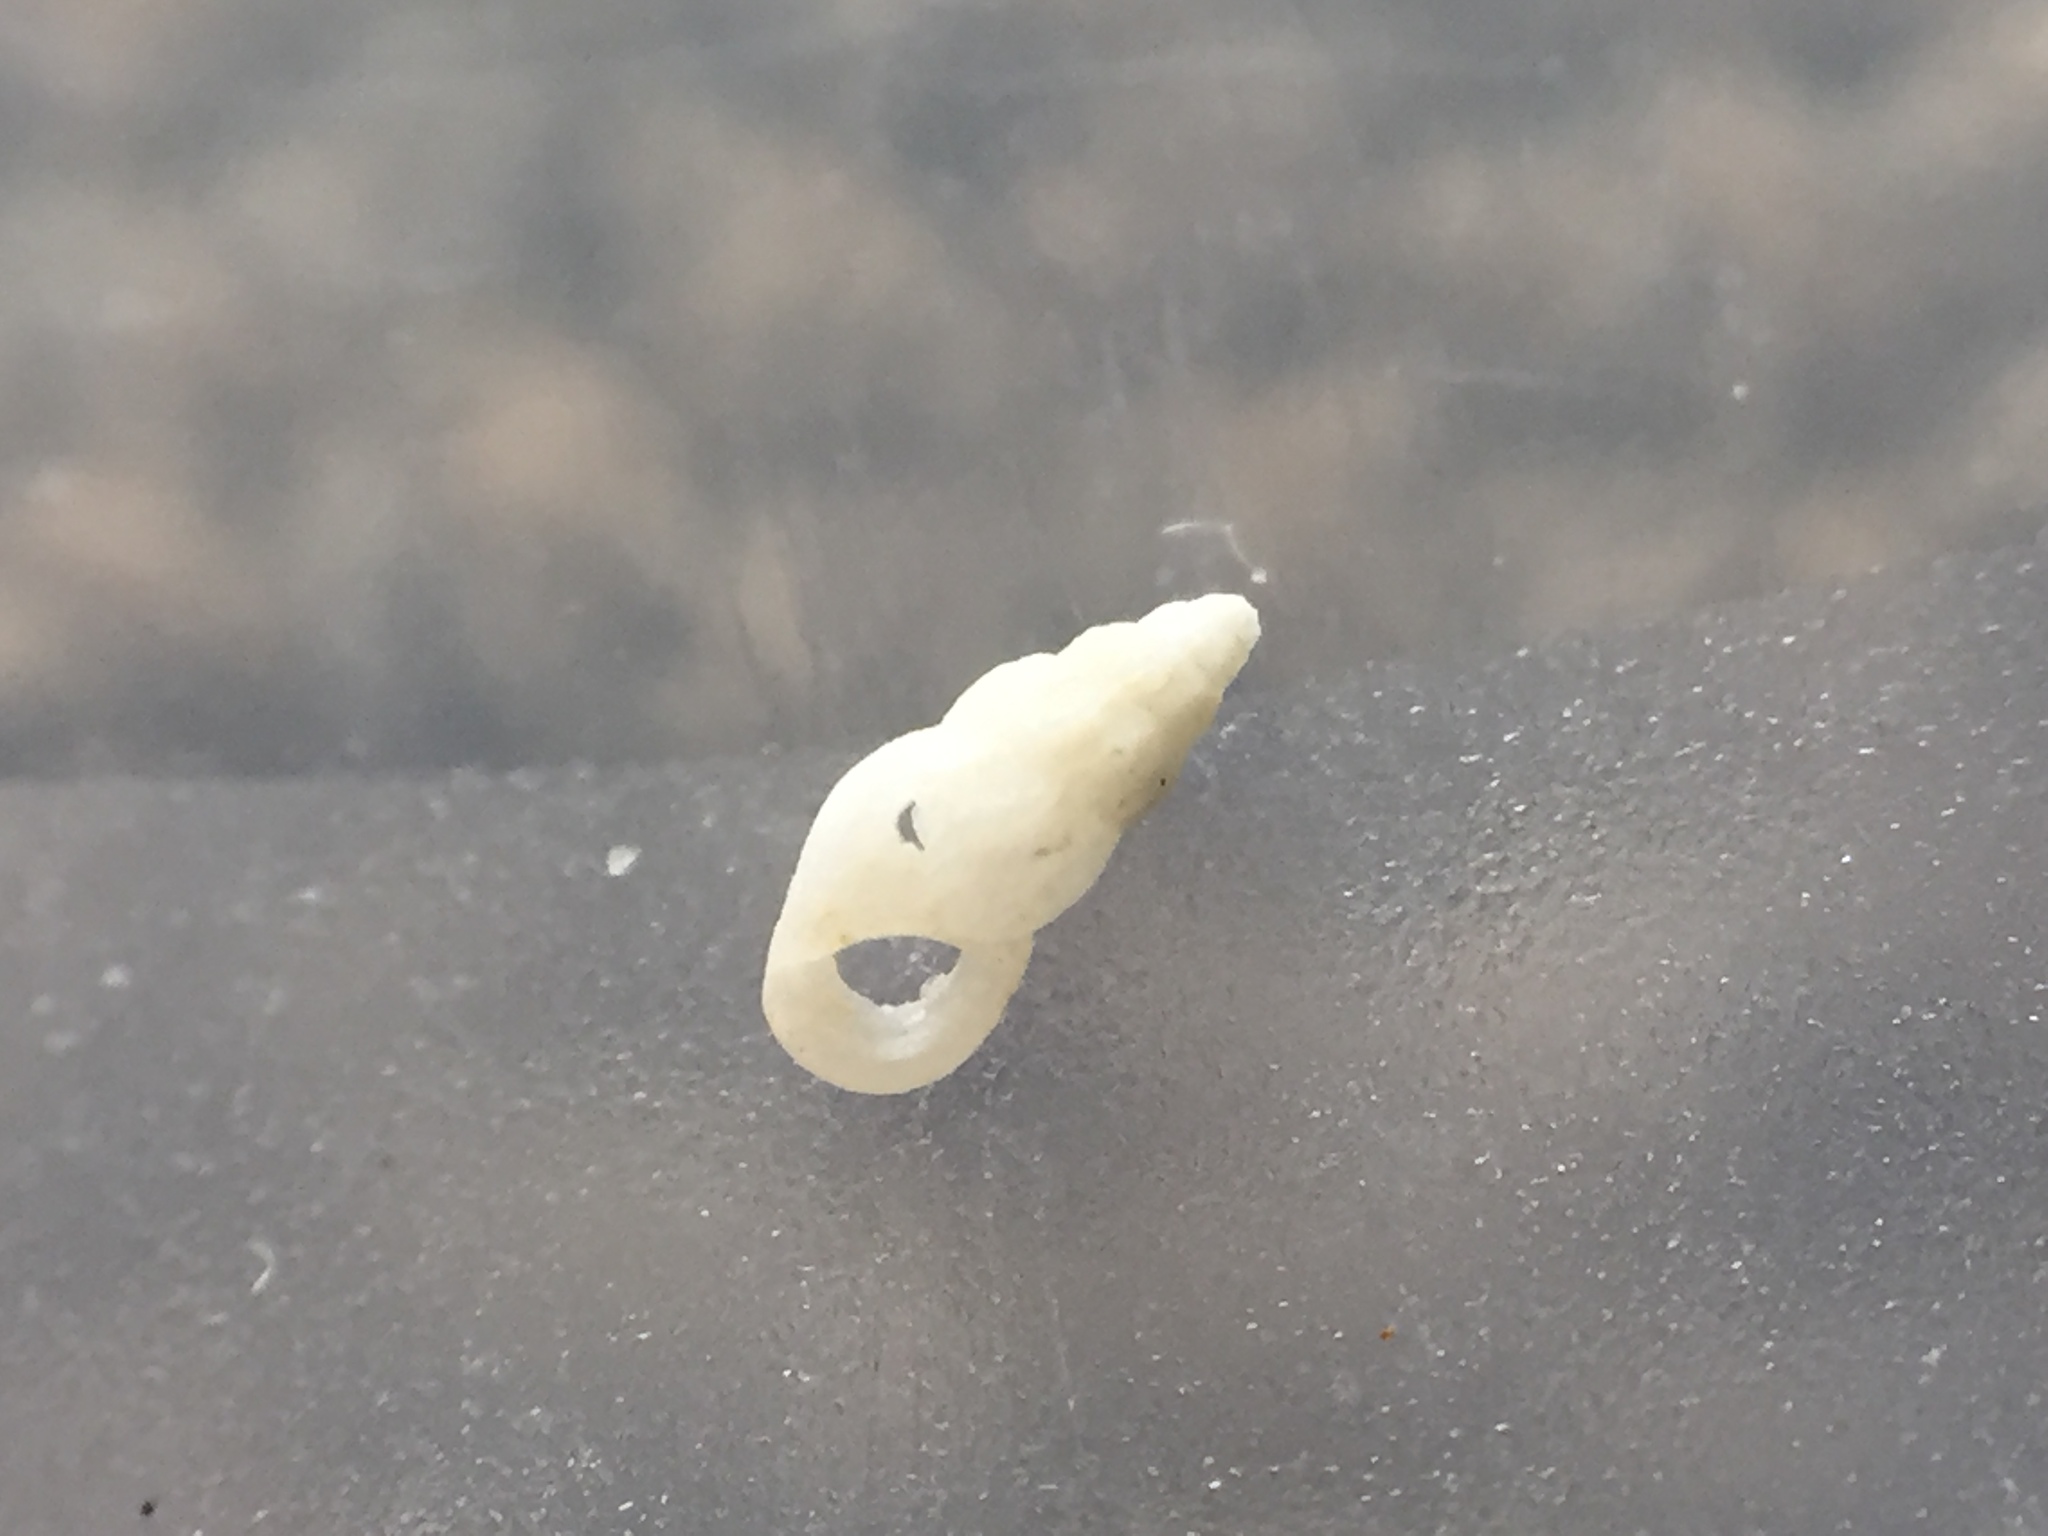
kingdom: Animalia
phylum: Mollusca
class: Gastropoda
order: Littorinimorpha
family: Rissoinidae
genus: Rissoina
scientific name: Rissoina fucosa
